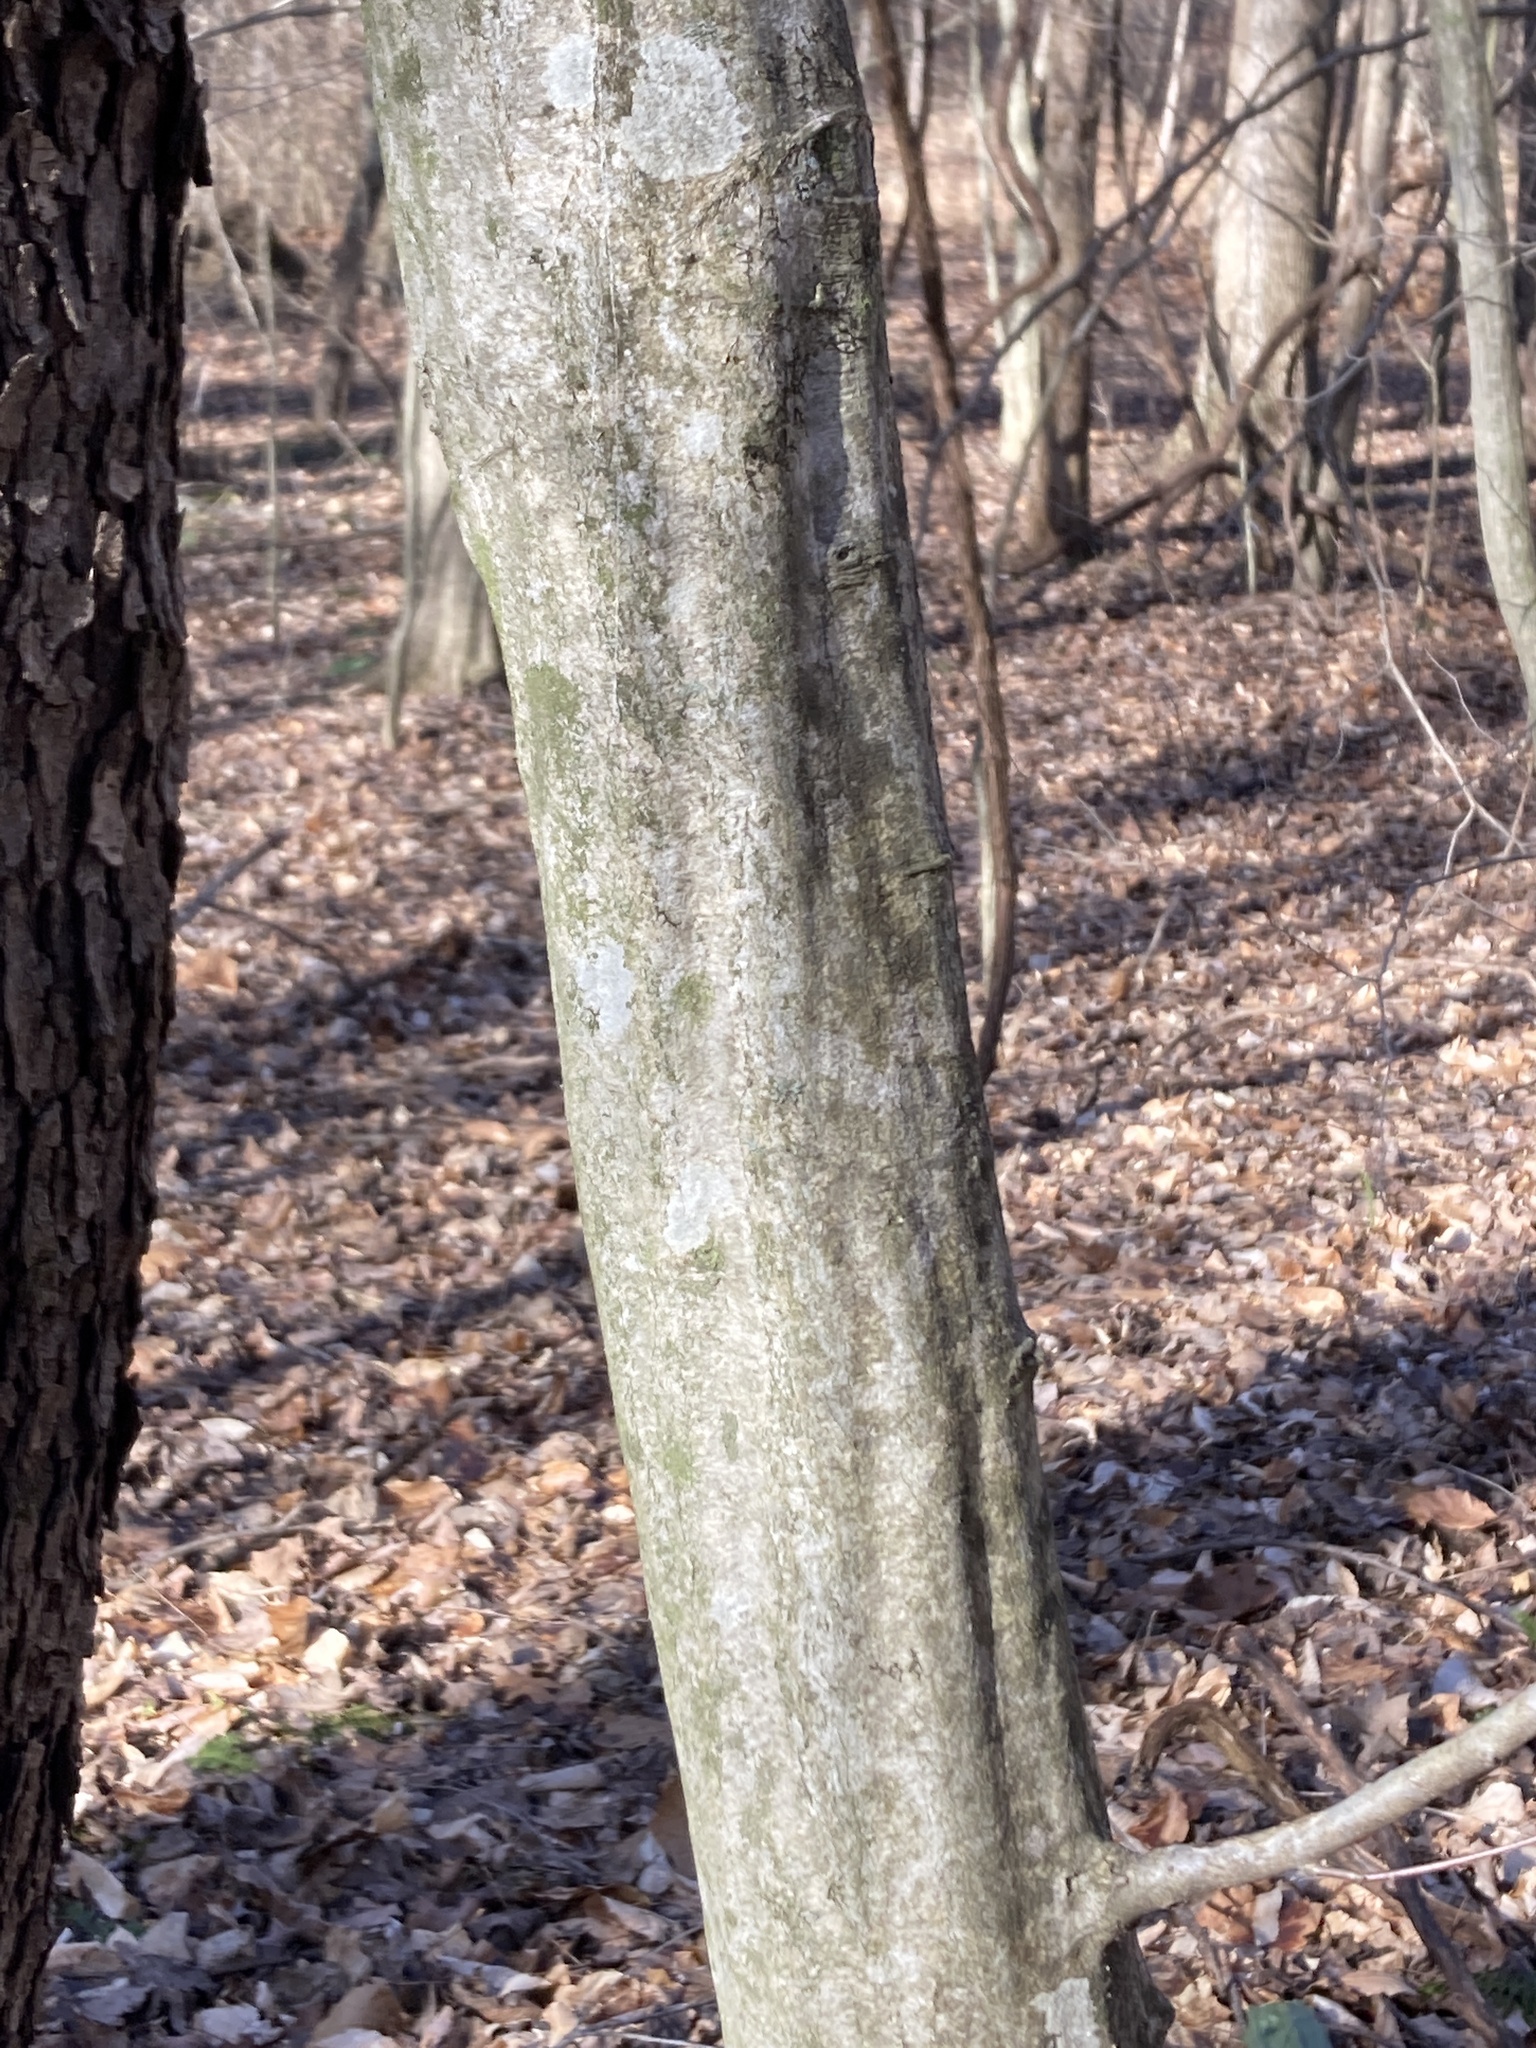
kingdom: Plantae
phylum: Tracheophyta
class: Magnoliopsida
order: Fagales
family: Betulaceae
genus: Carpinus
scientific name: Carpinus caroliniana
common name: American hornbeam
